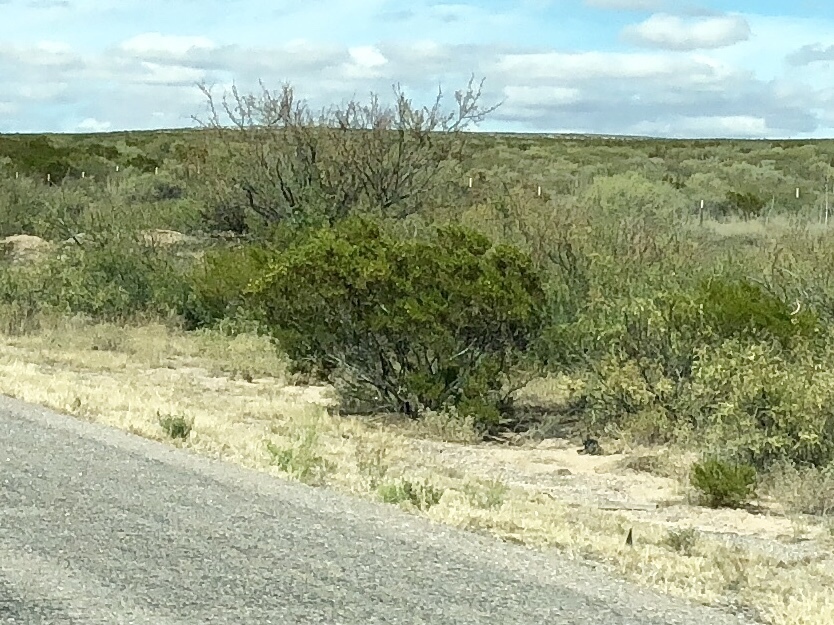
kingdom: Plantae
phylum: Tracheophyta
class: Magnoliopsida
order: Zygophyllales
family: Zygophyllaceae
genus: Larrea
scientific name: Larrea tridentata
